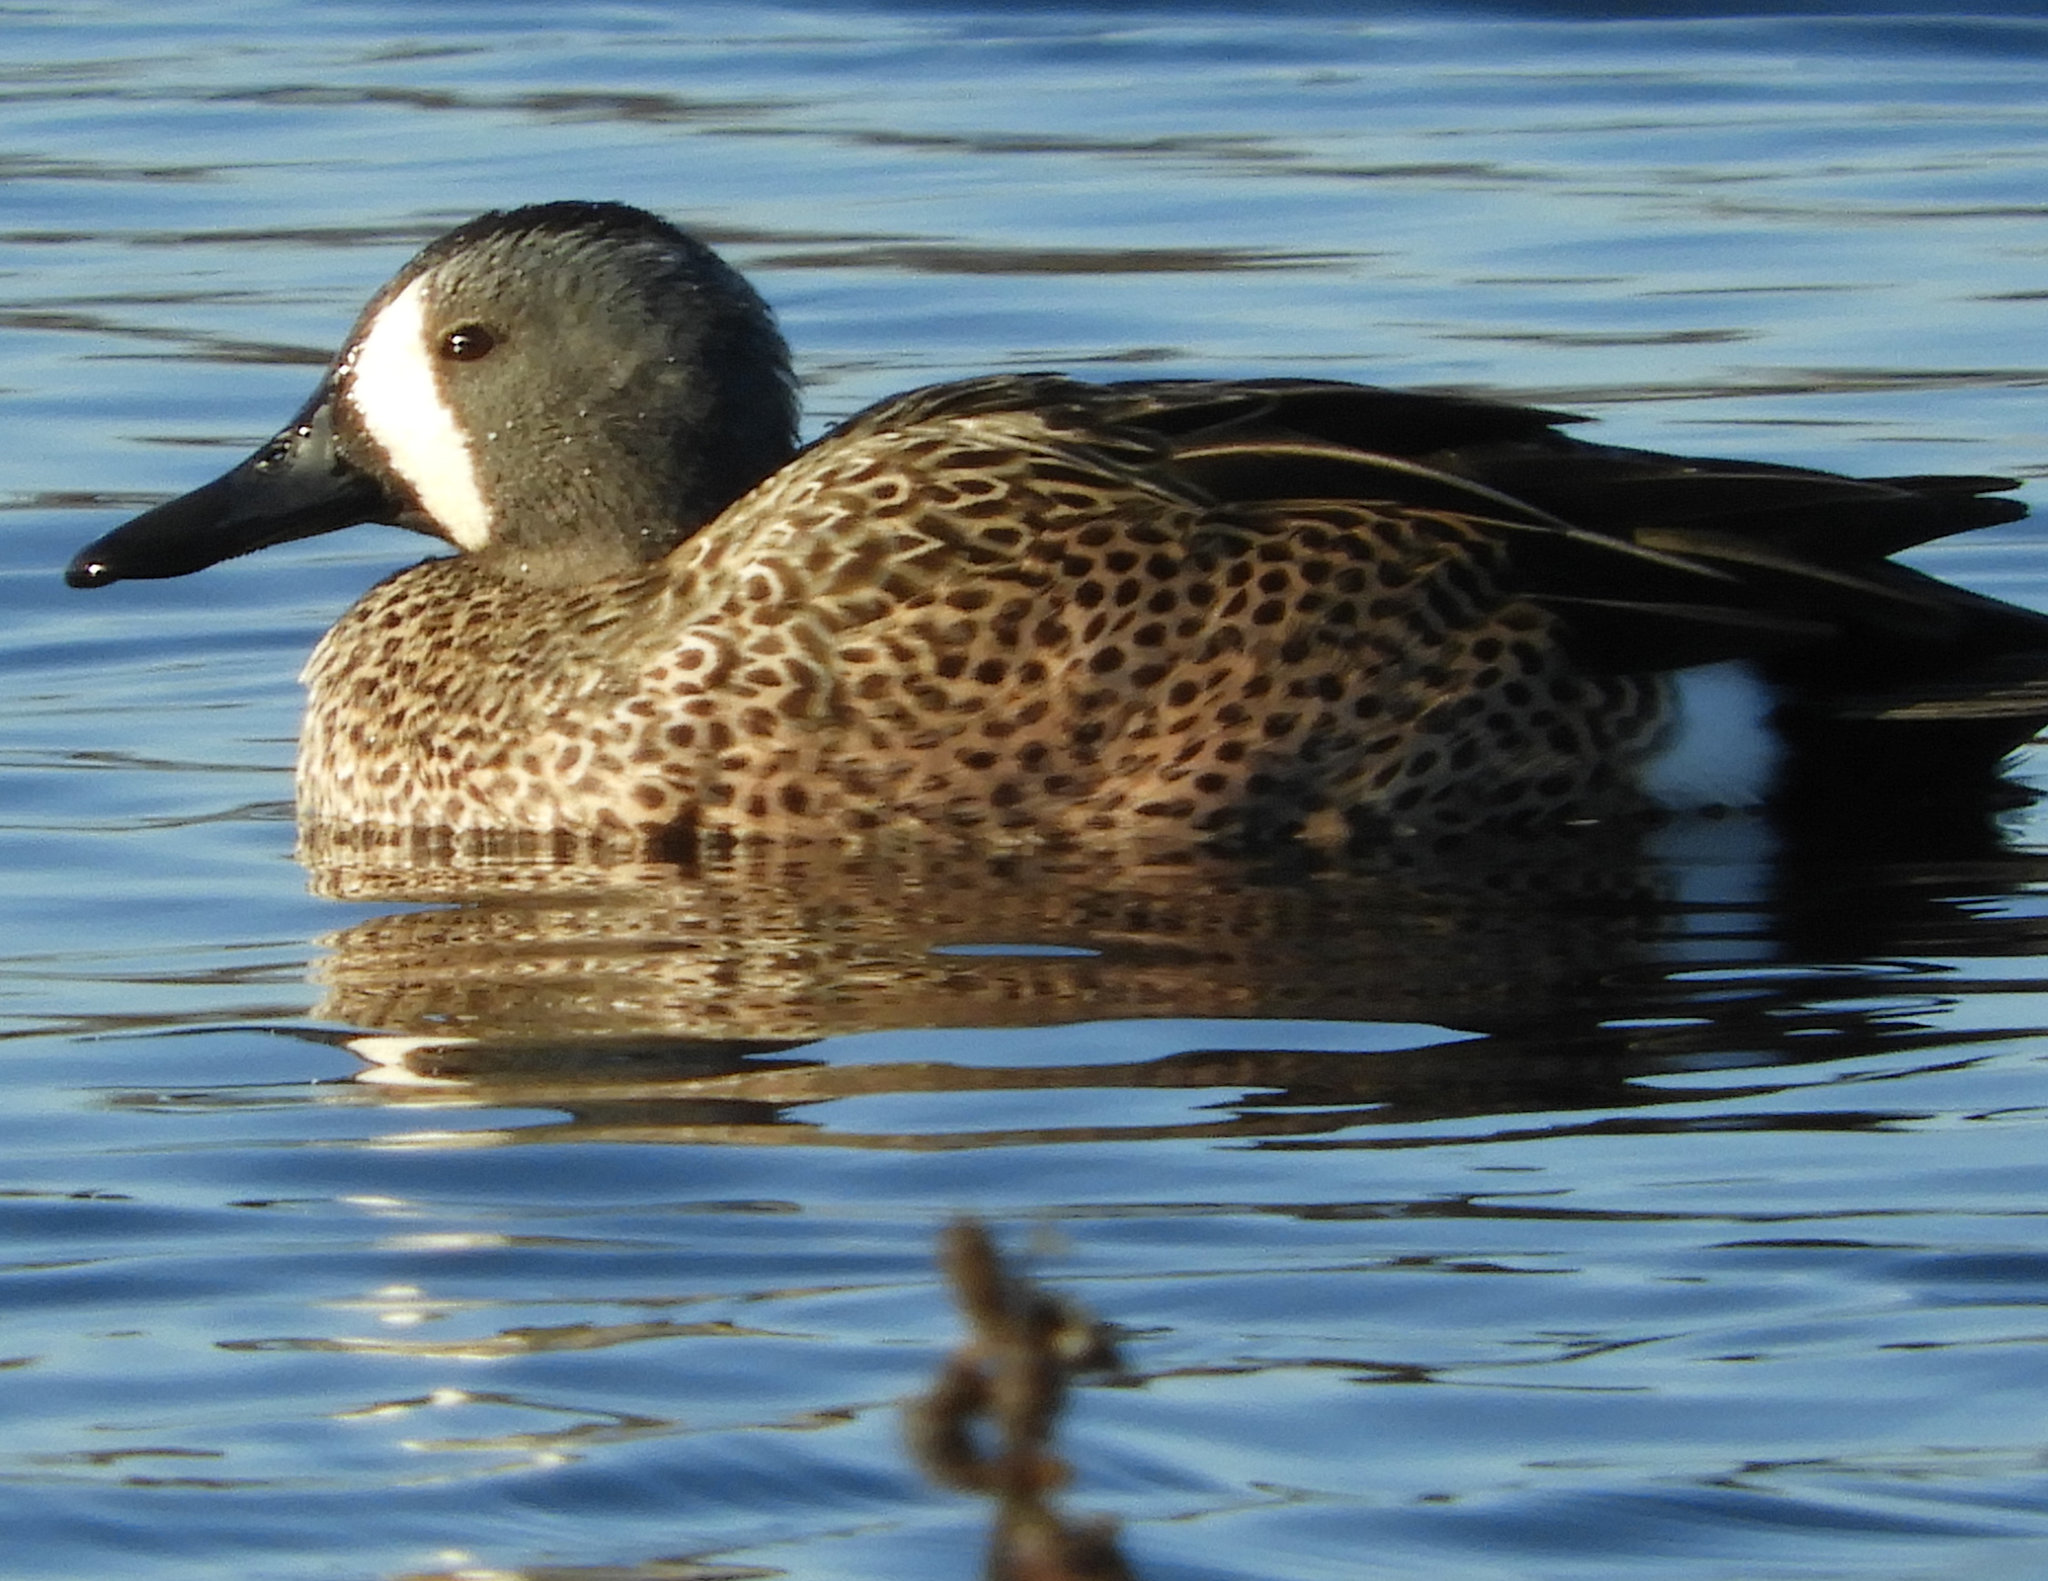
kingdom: Animalia
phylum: Chordata
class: Aves
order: Anseriformes
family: Anatidae
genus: Spatula
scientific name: Spatula discors
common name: Blue-winged teal
